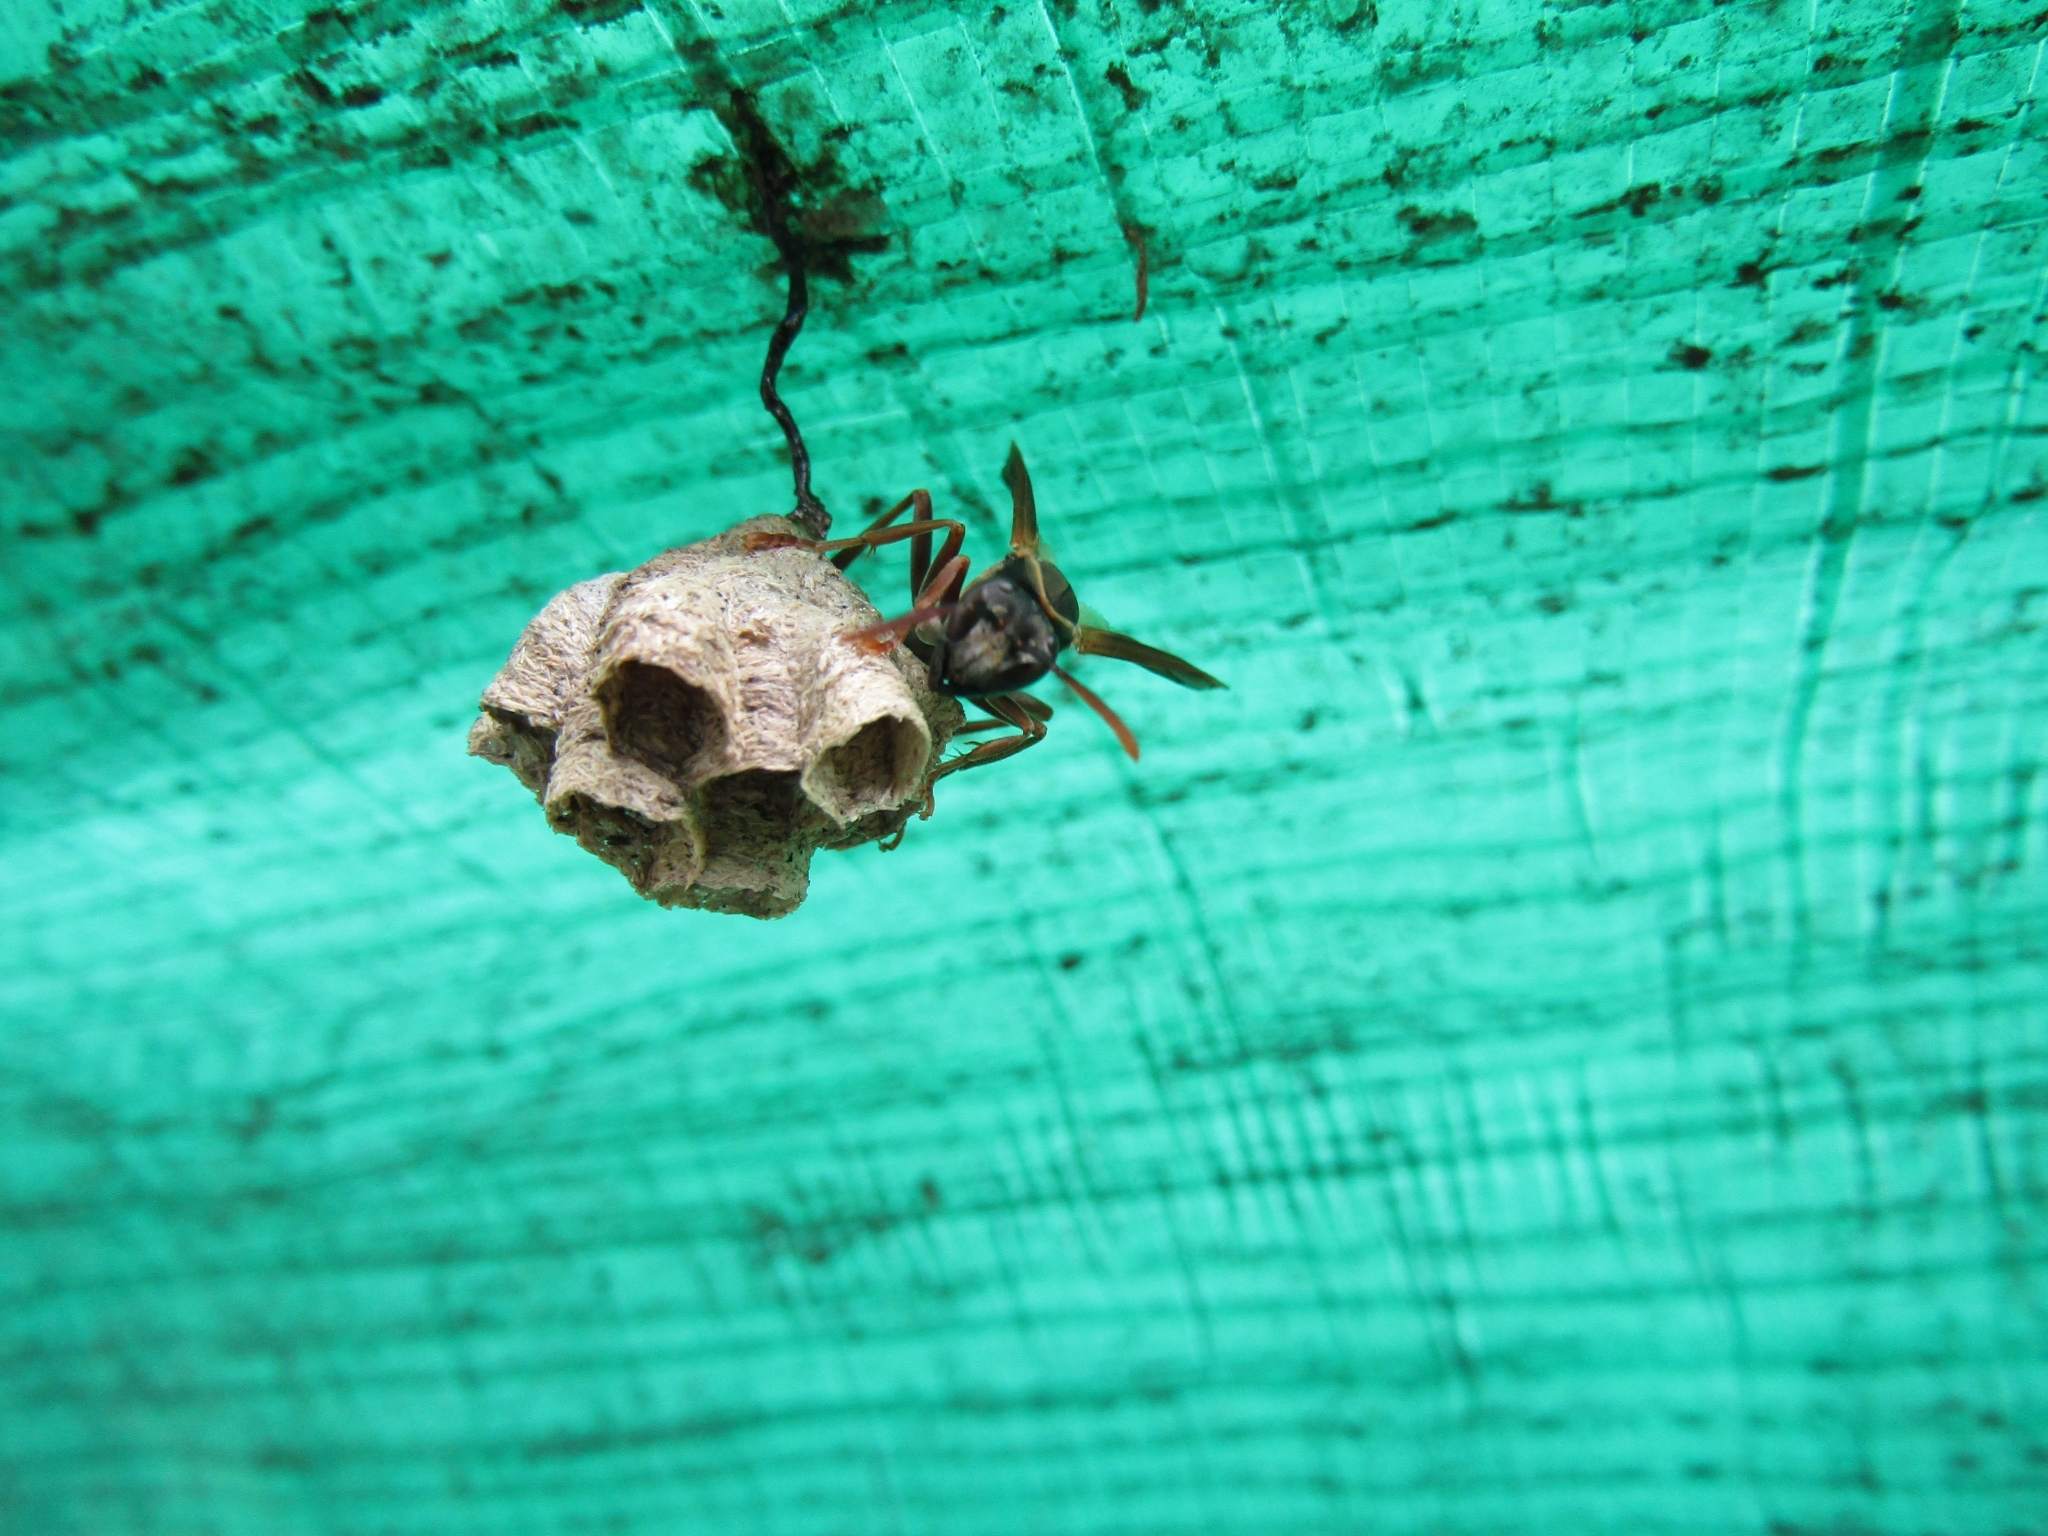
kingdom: Animalia
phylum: Arthropoda
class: Insecta
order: Hymenoptera
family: Vespidae
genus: Mischocyttarus
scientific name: Mischocyttarus drewseni
